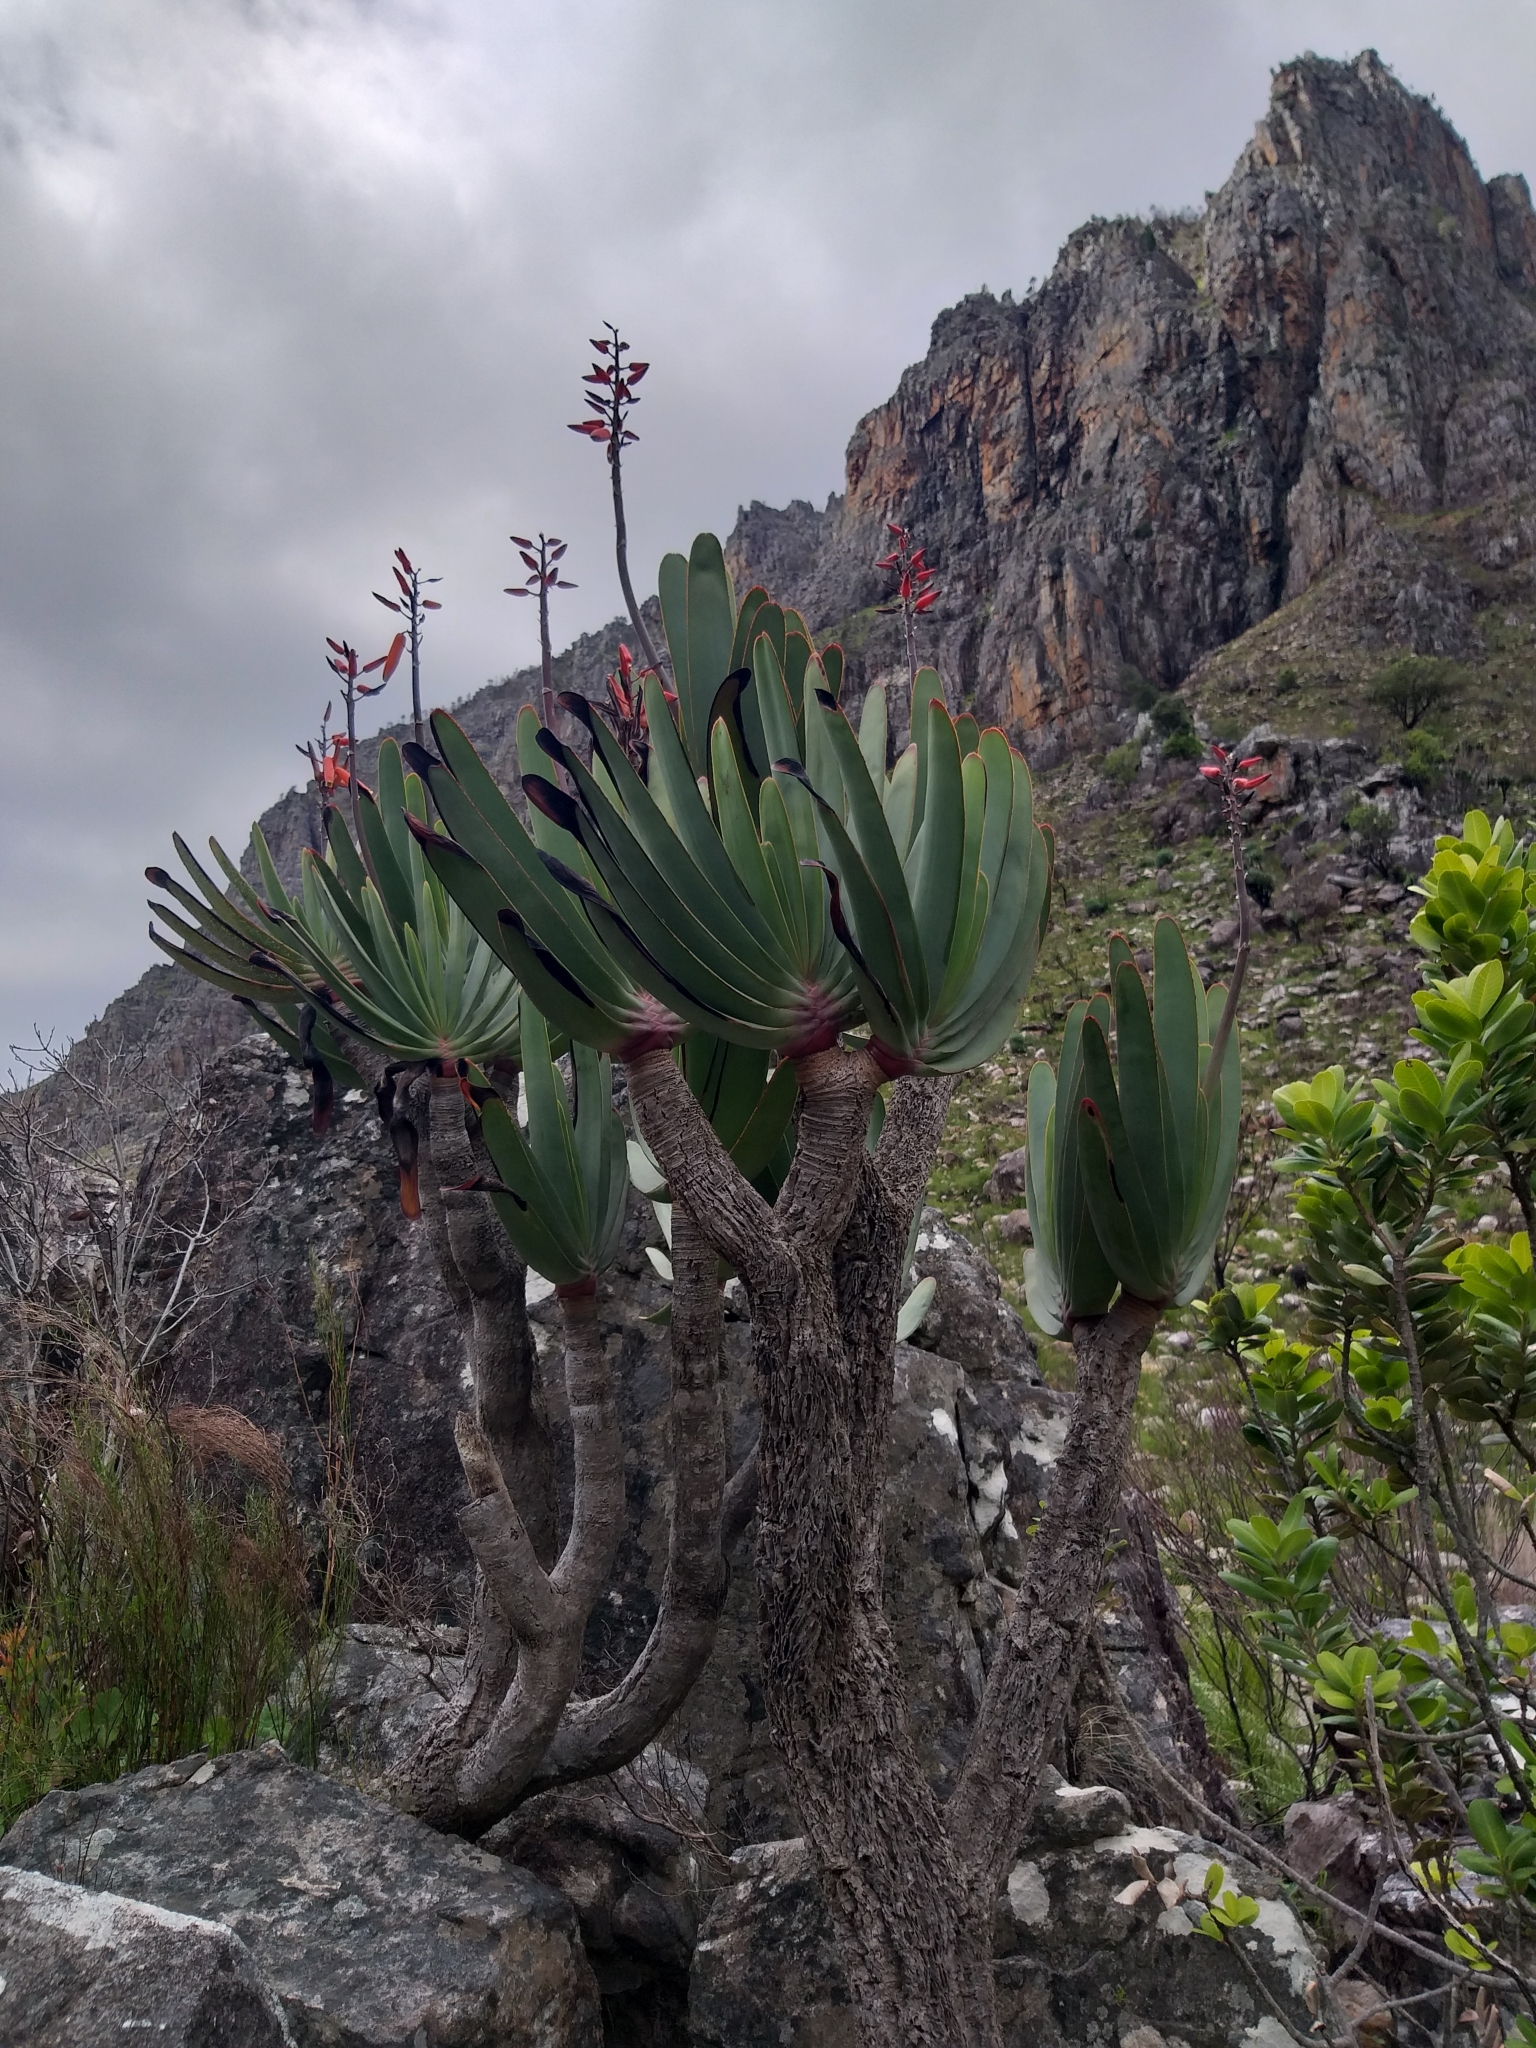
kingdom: Plantae
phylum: Tracheophyta
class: Liliopsida
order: Asparagales
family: Asphodelaceae
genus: Kumara
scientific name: Kumara plicatilis
